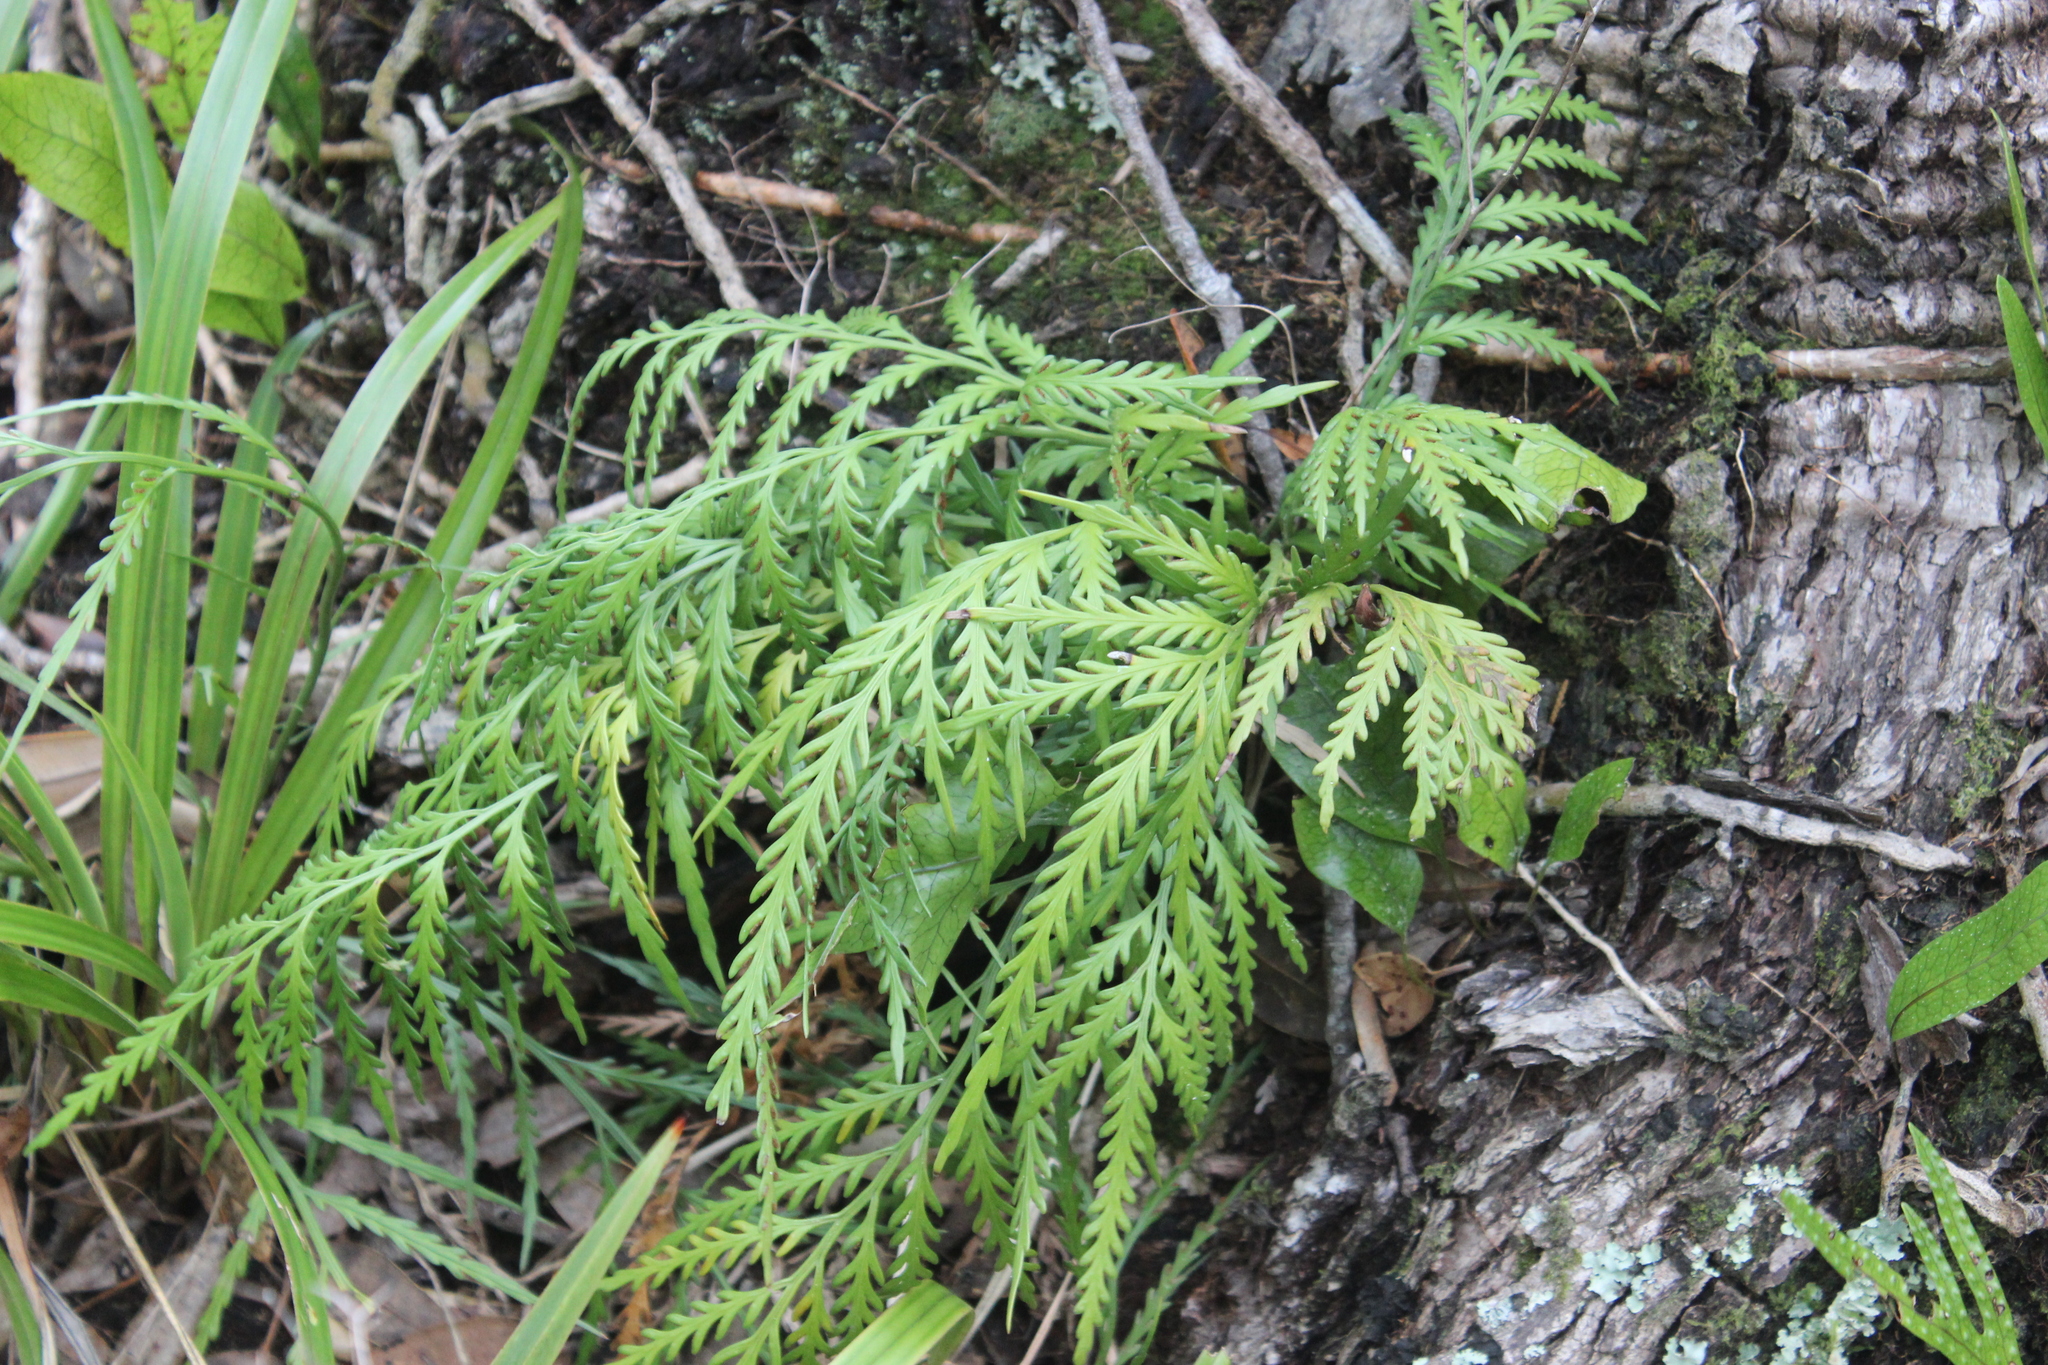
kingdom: Plantae
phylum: Tracheophyta
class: Polypodiopsida
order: Polypodiales
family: Aspleniaceae
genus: Asplenium
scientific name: Asplenium flaccidum
